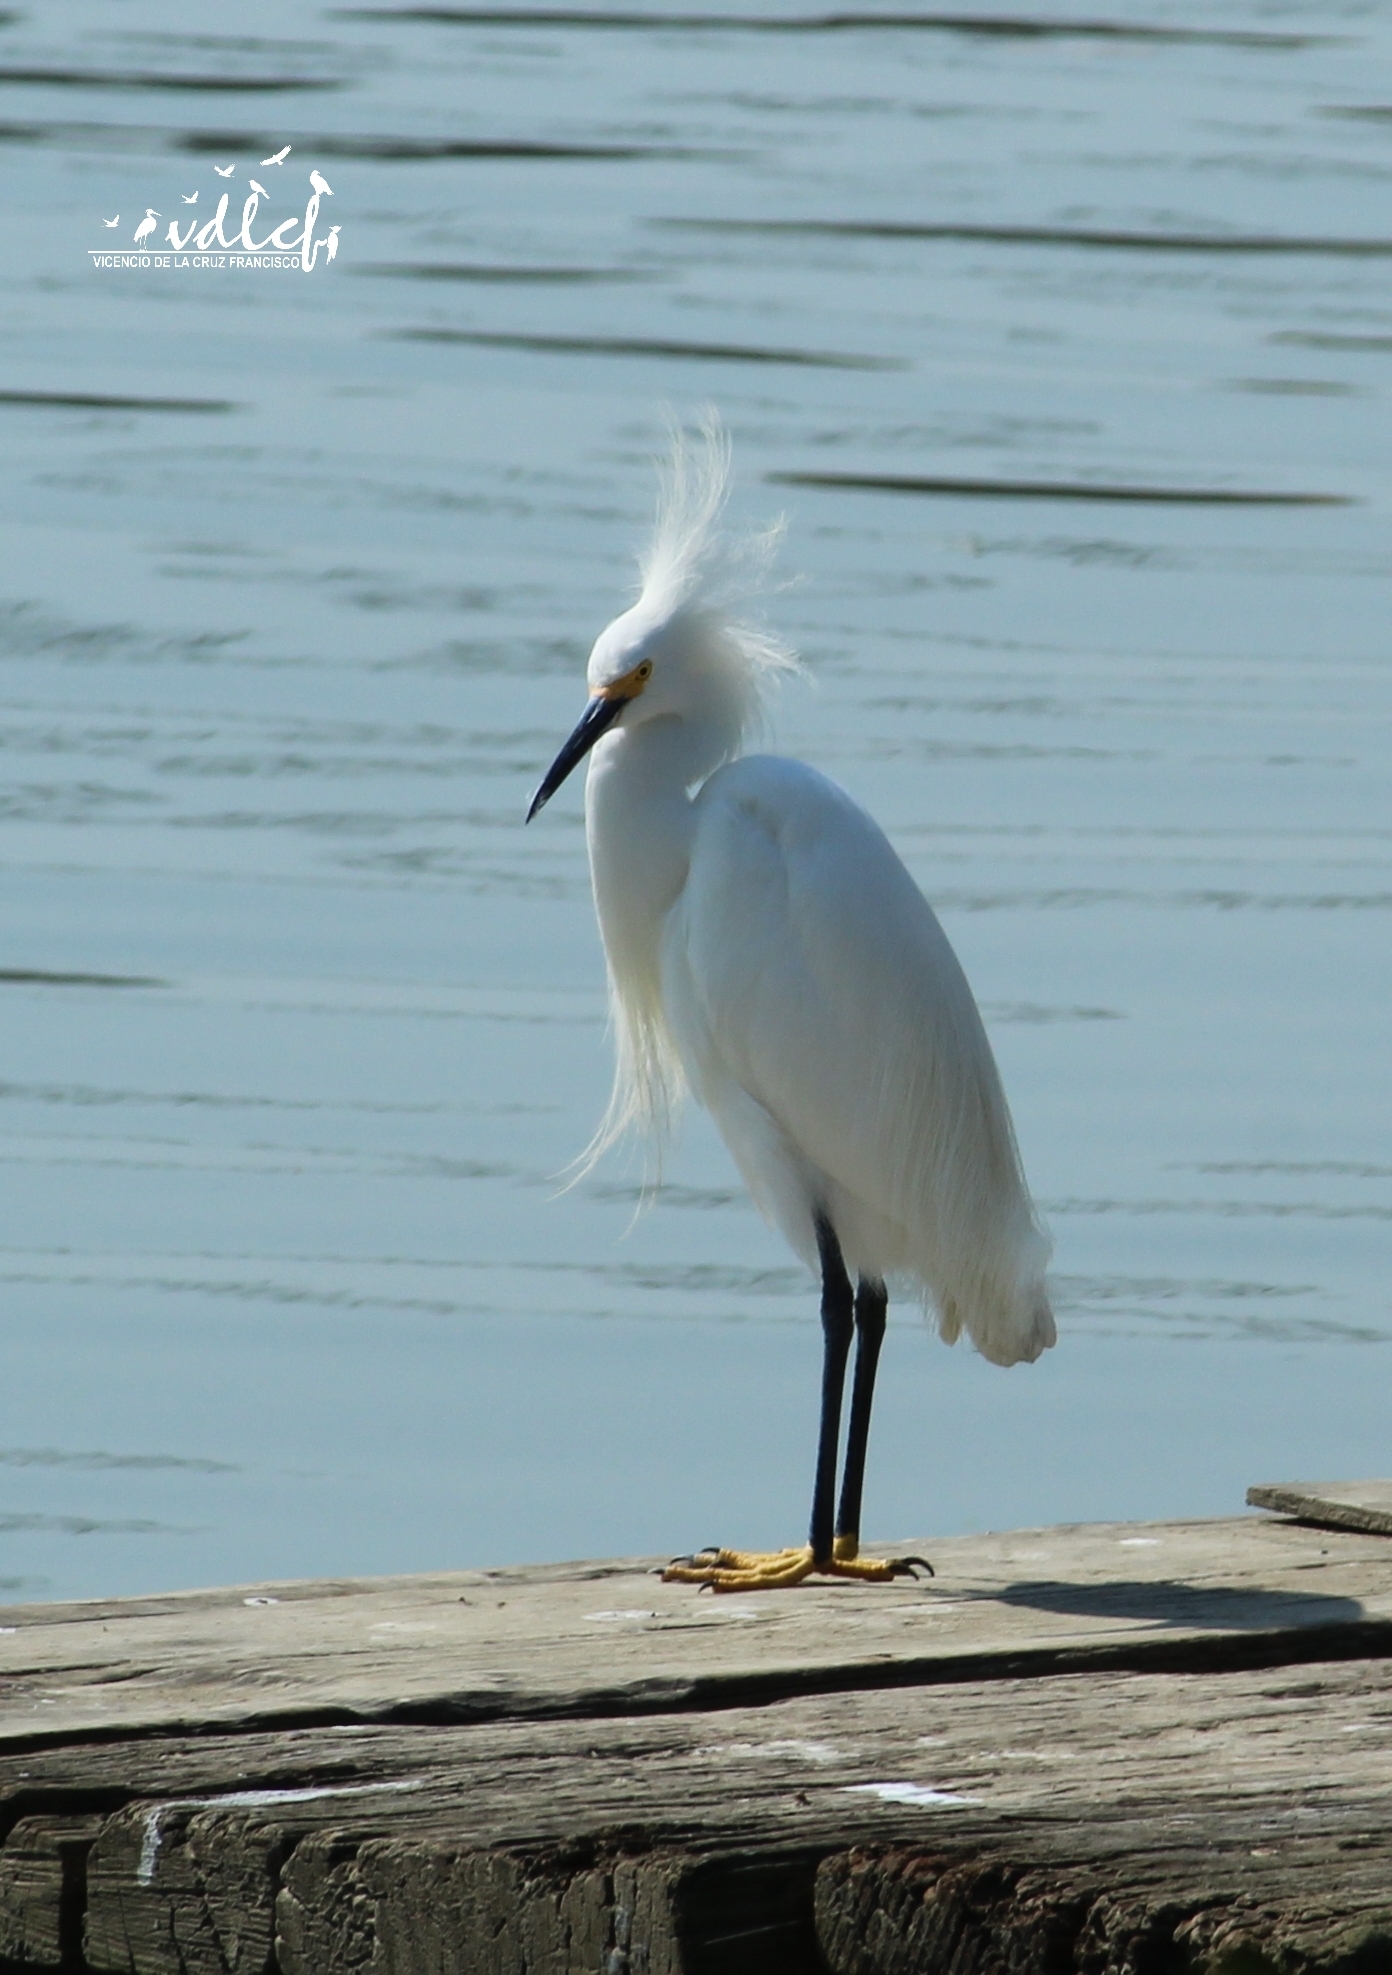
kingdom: Animalia
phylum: Chordata
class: Aves
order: Pelecaniformes
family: Ardeidae
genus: Egretta
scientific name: Egretta thula
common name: Snowy egret
